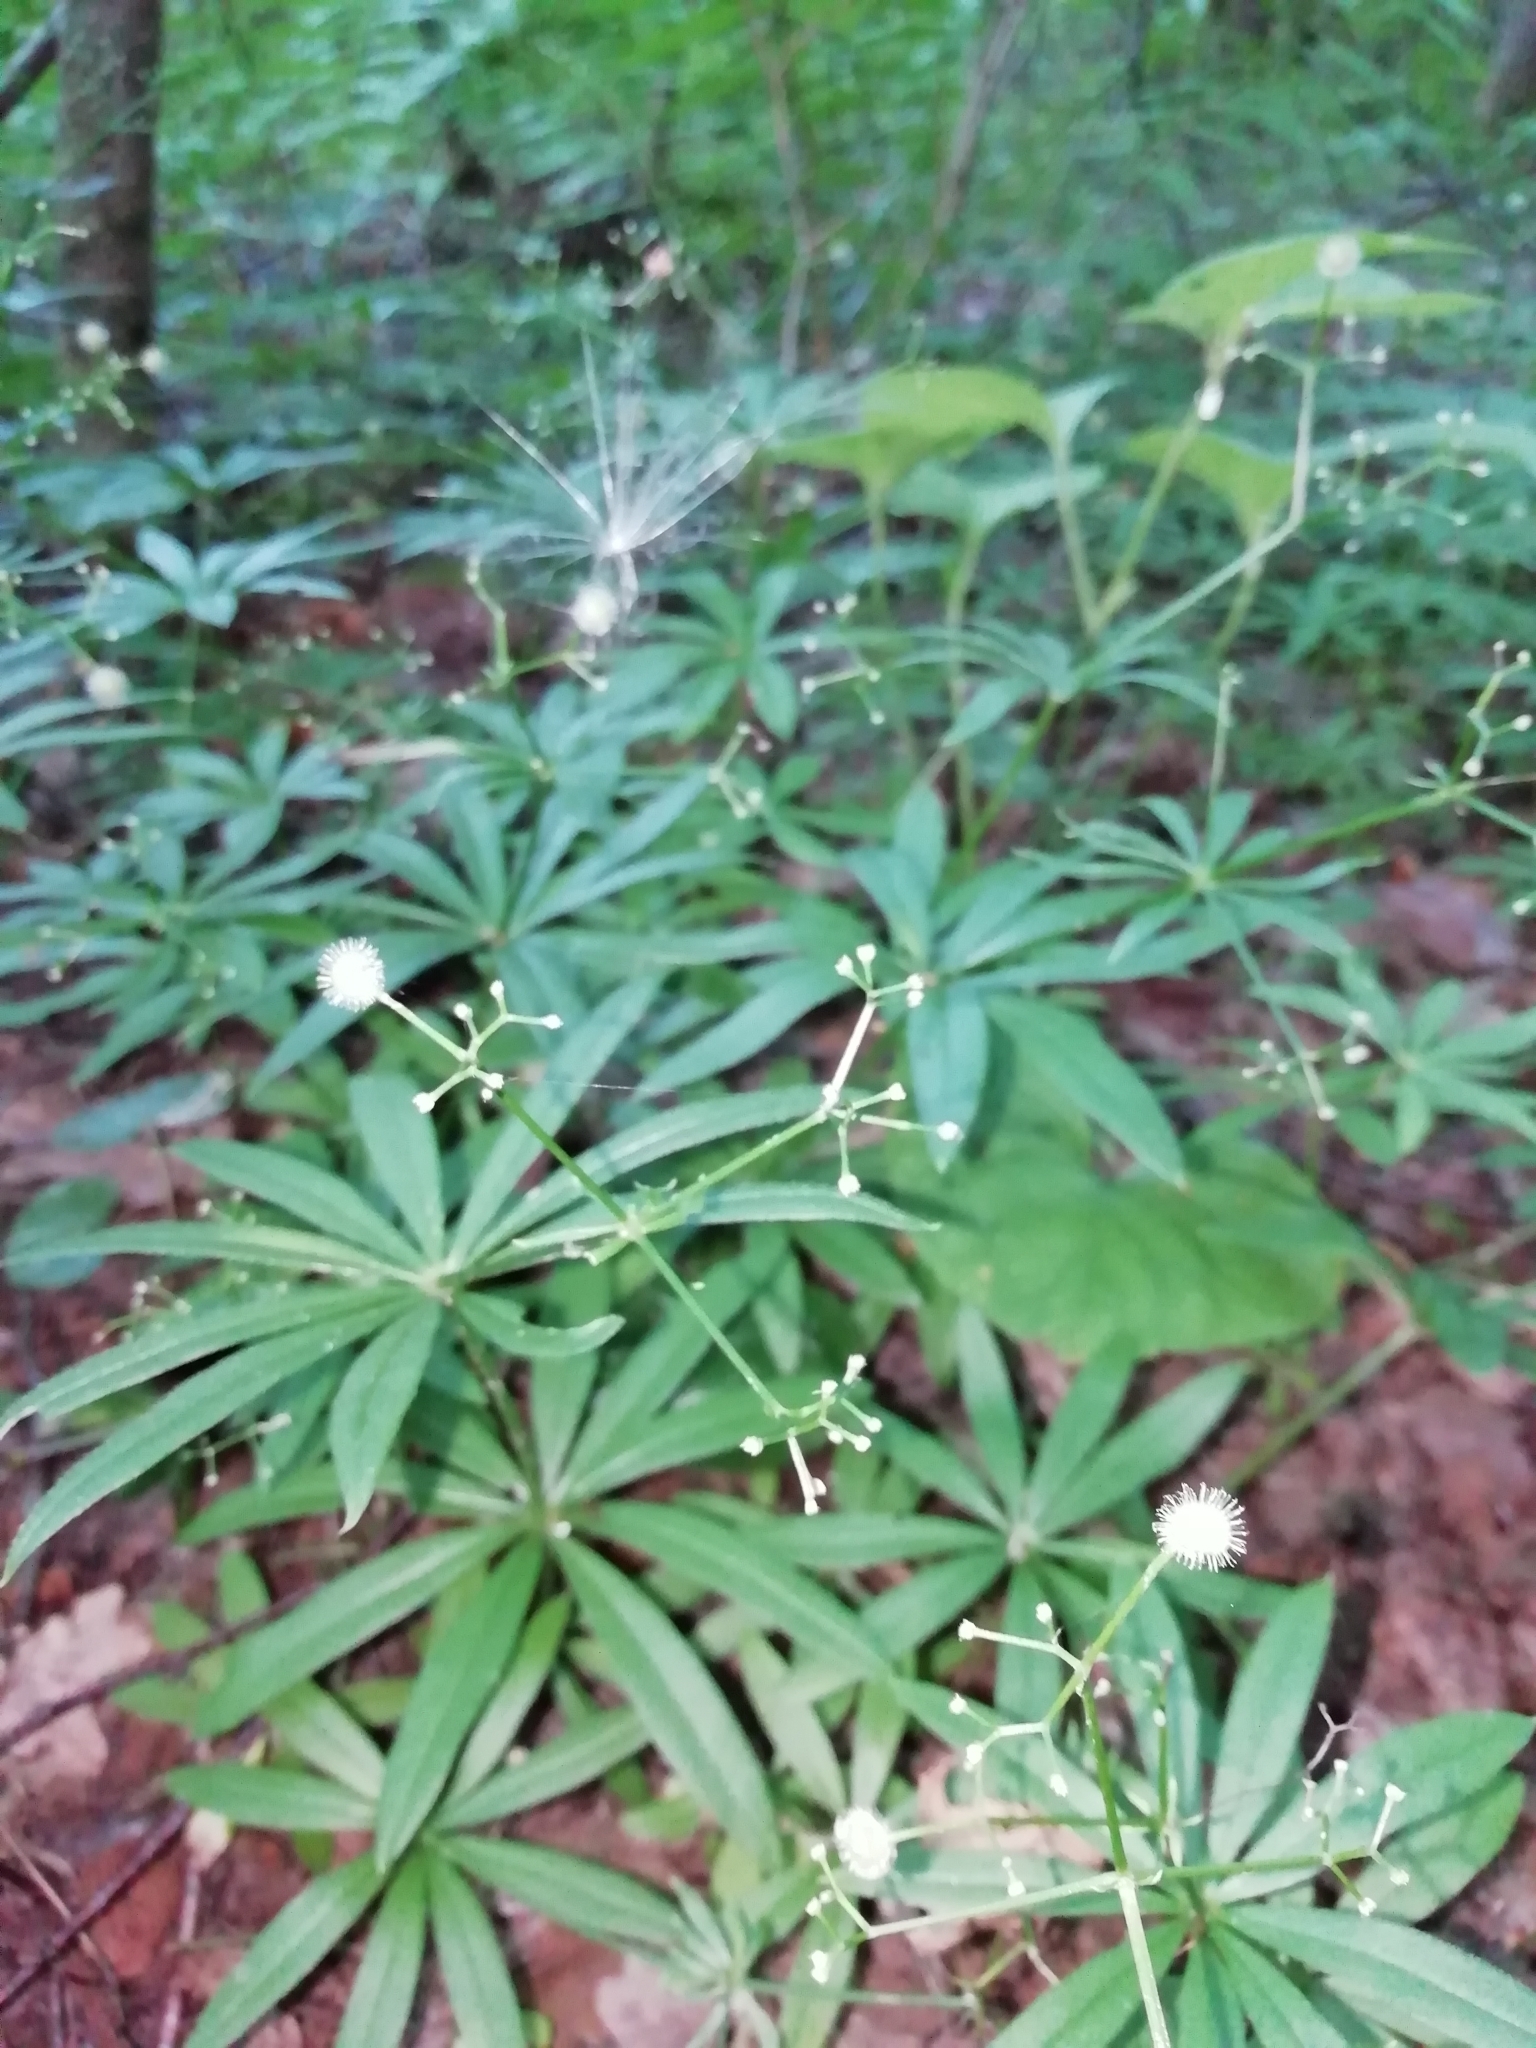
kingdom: Plantae
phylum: Tracheophyta
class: Magnoliopsida
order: Gentianales
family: Rubiaceae
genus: Galium
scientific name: Galium odoratum
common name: Sweet woodruff
